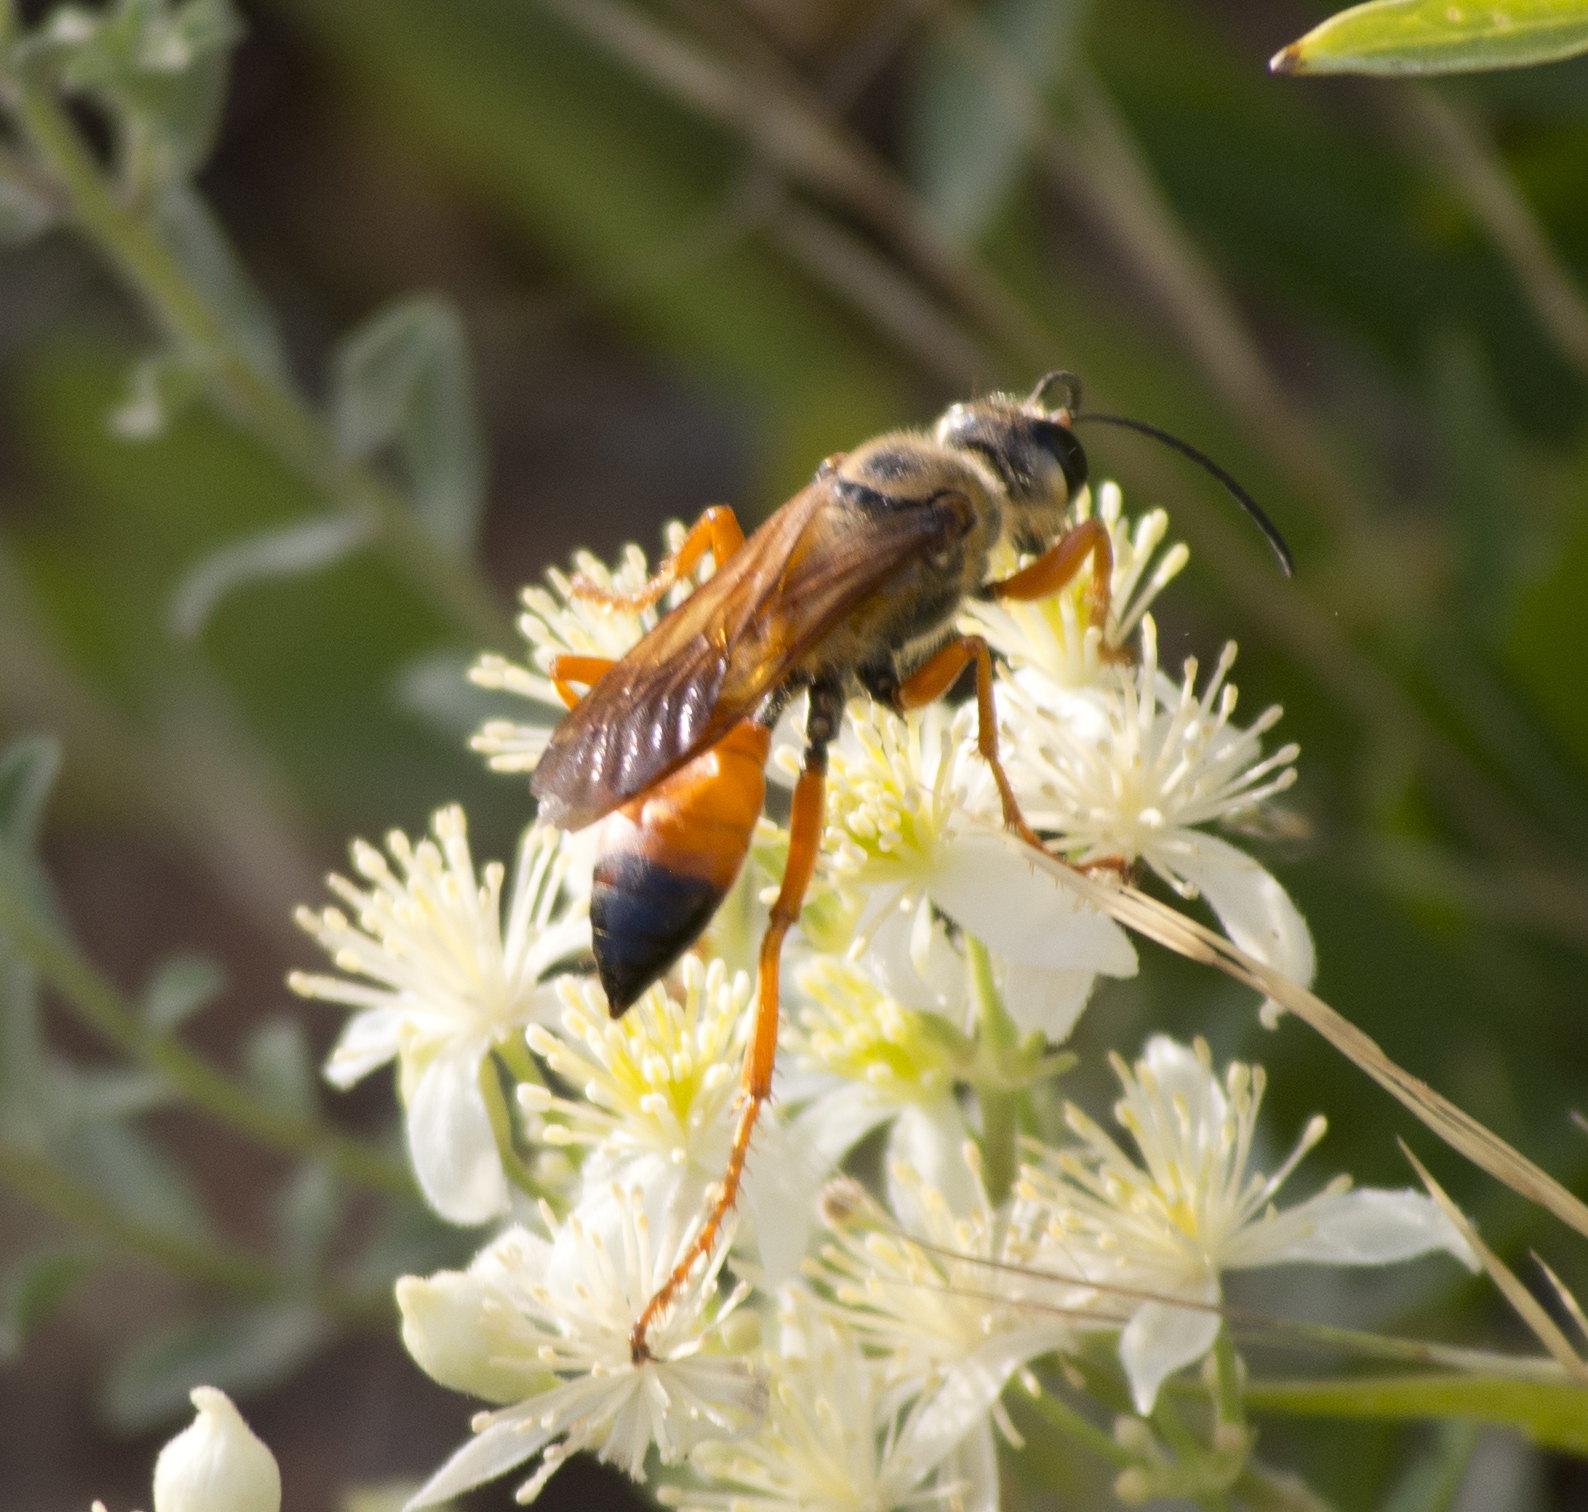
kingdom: Animalia
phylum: Arthropoda
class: Insecta
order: Hymenoptera
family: Sphecidae
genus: Sphex
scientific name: Sphex ichneumoneus
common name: Great golden digger wasp
